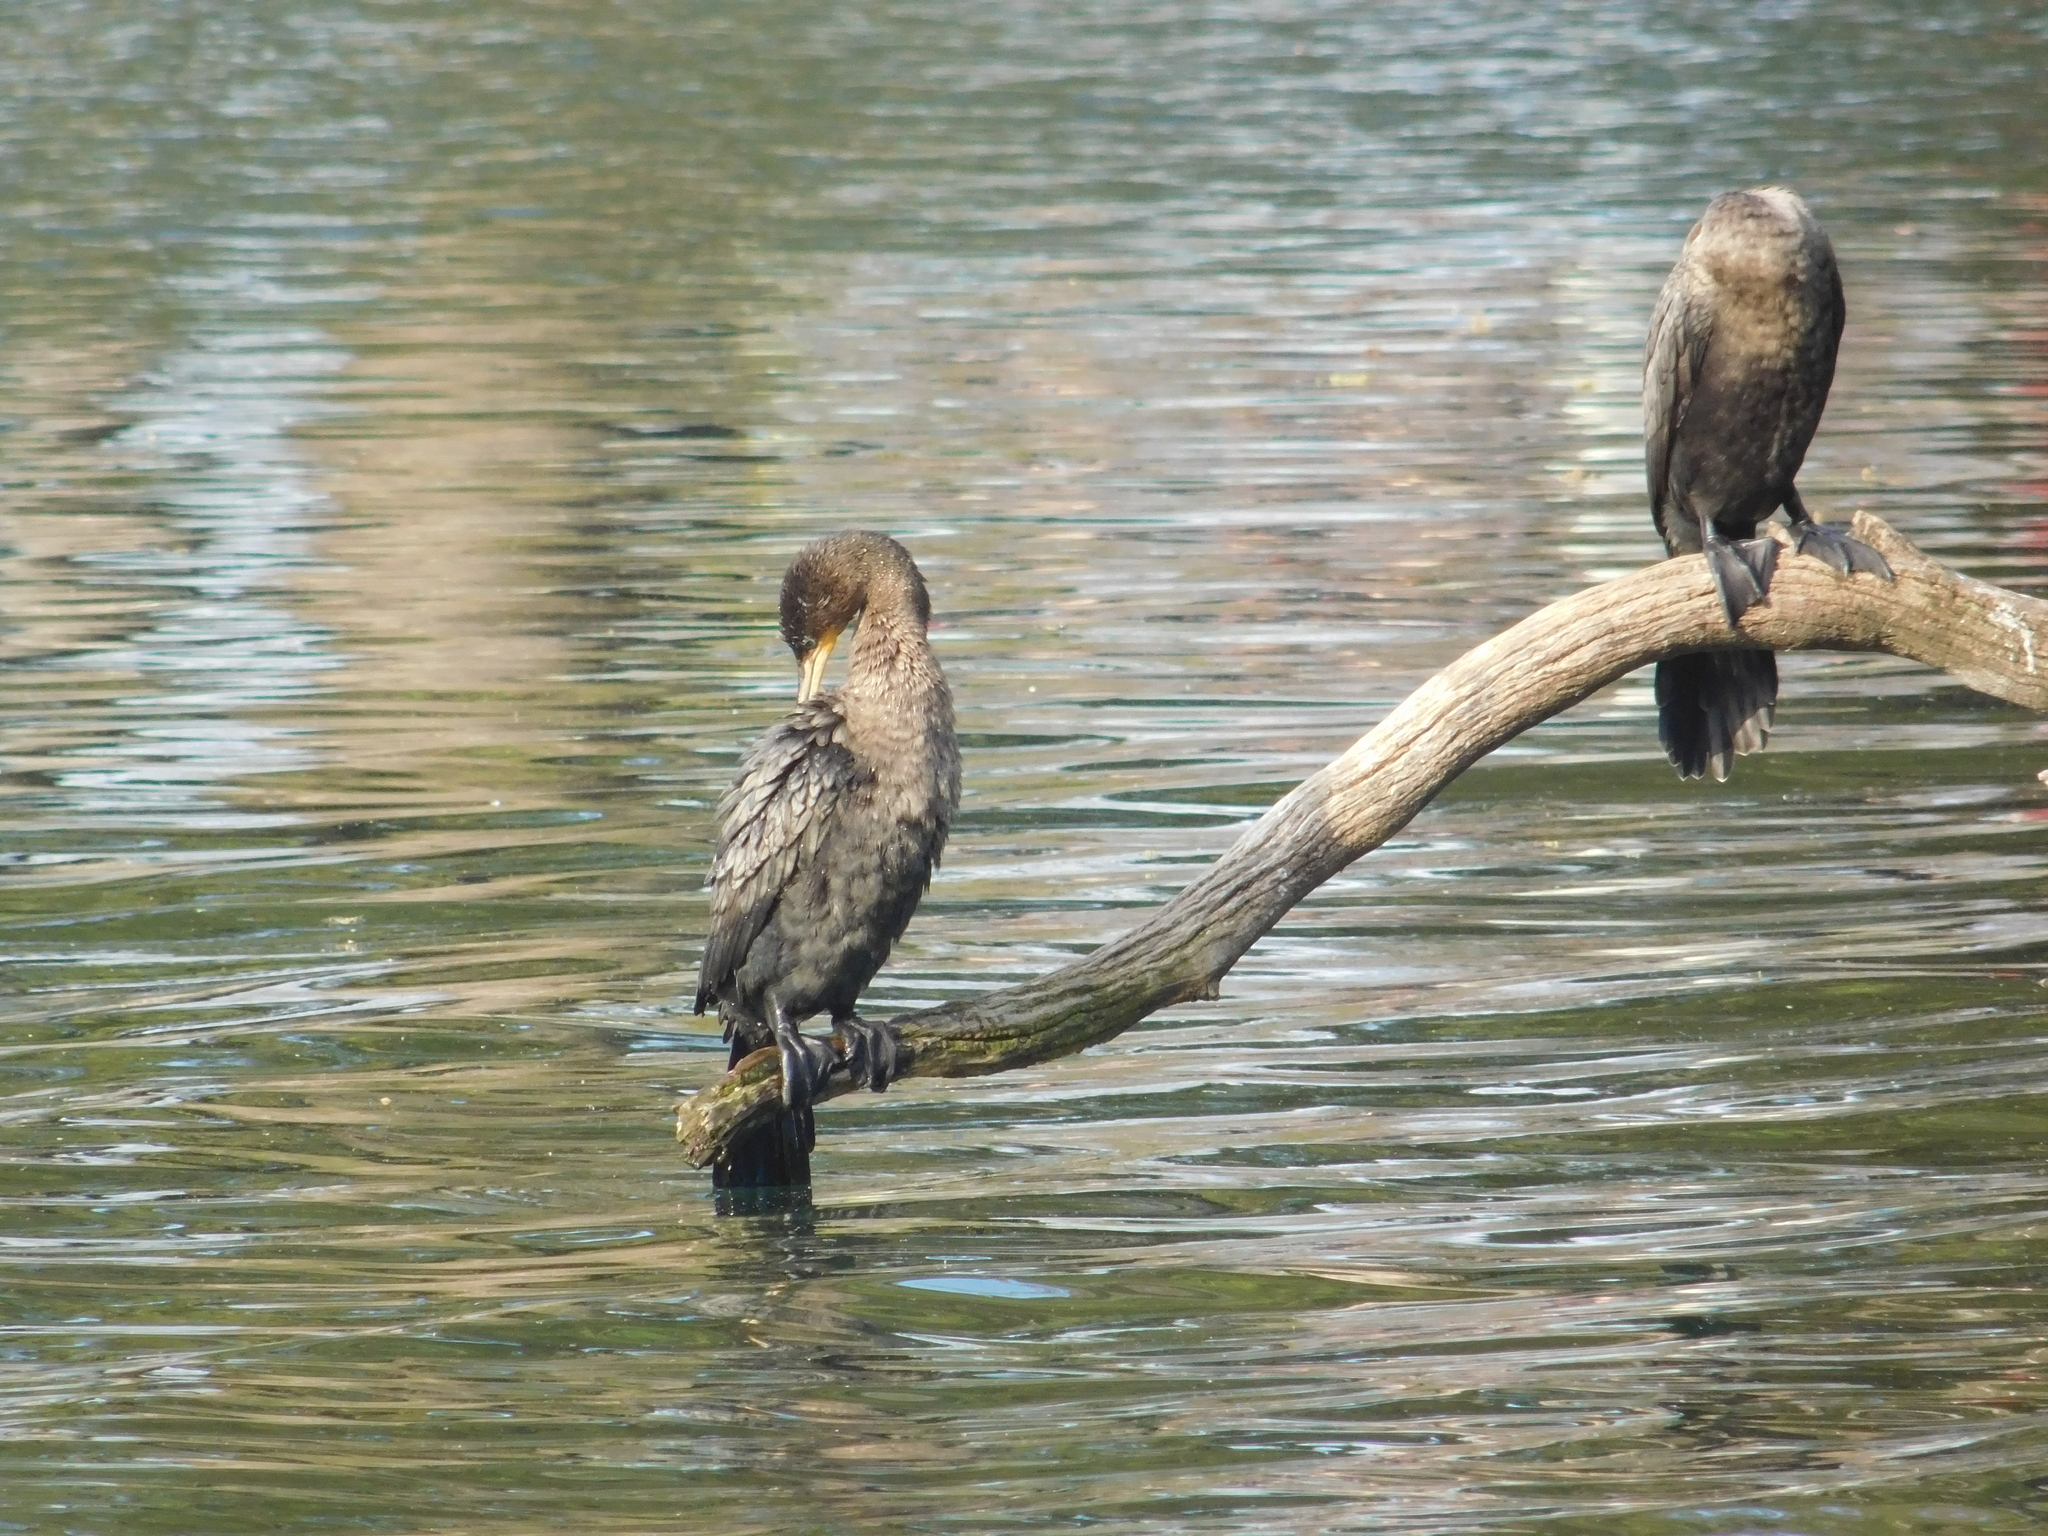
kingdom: Animalia
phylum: Chordata
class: Aves
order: Suliformes
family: Phalacrocoracidae
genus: Phalacrocorax
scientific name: Phalacrocorax brasilianus
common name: Neotropic cormorant
